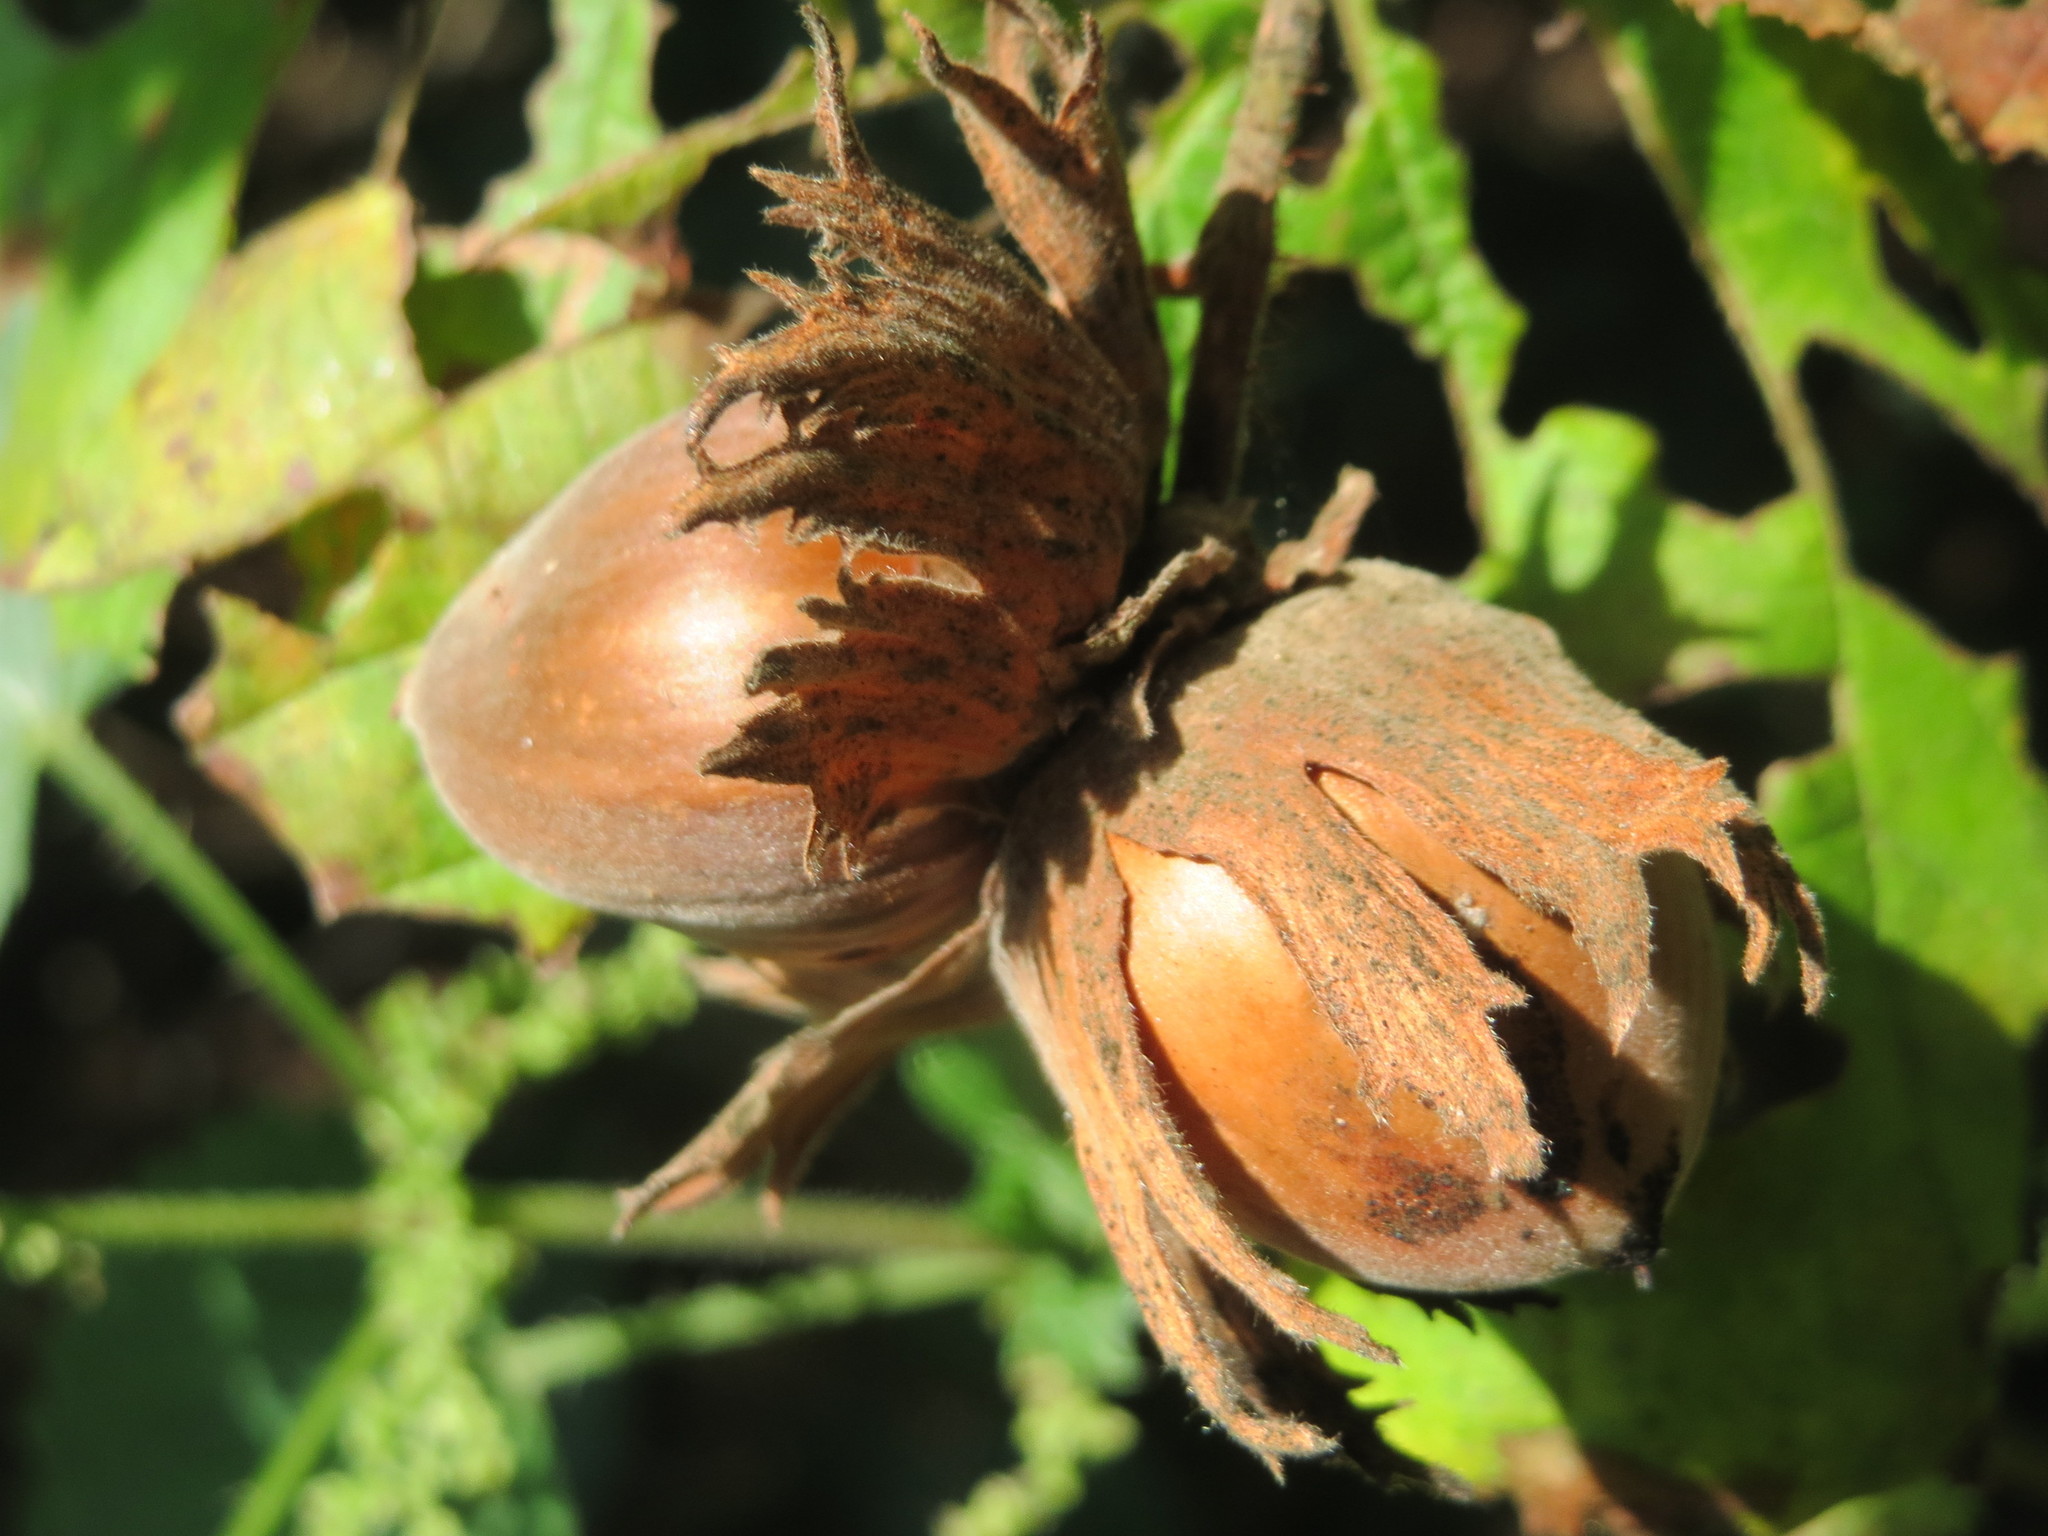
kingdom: Plantae
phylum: Tracheophyta
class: Magnoliopsida
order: Fagales
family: Betulaceae
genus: Corylus
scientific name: Corylus avellana
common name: European hazel
